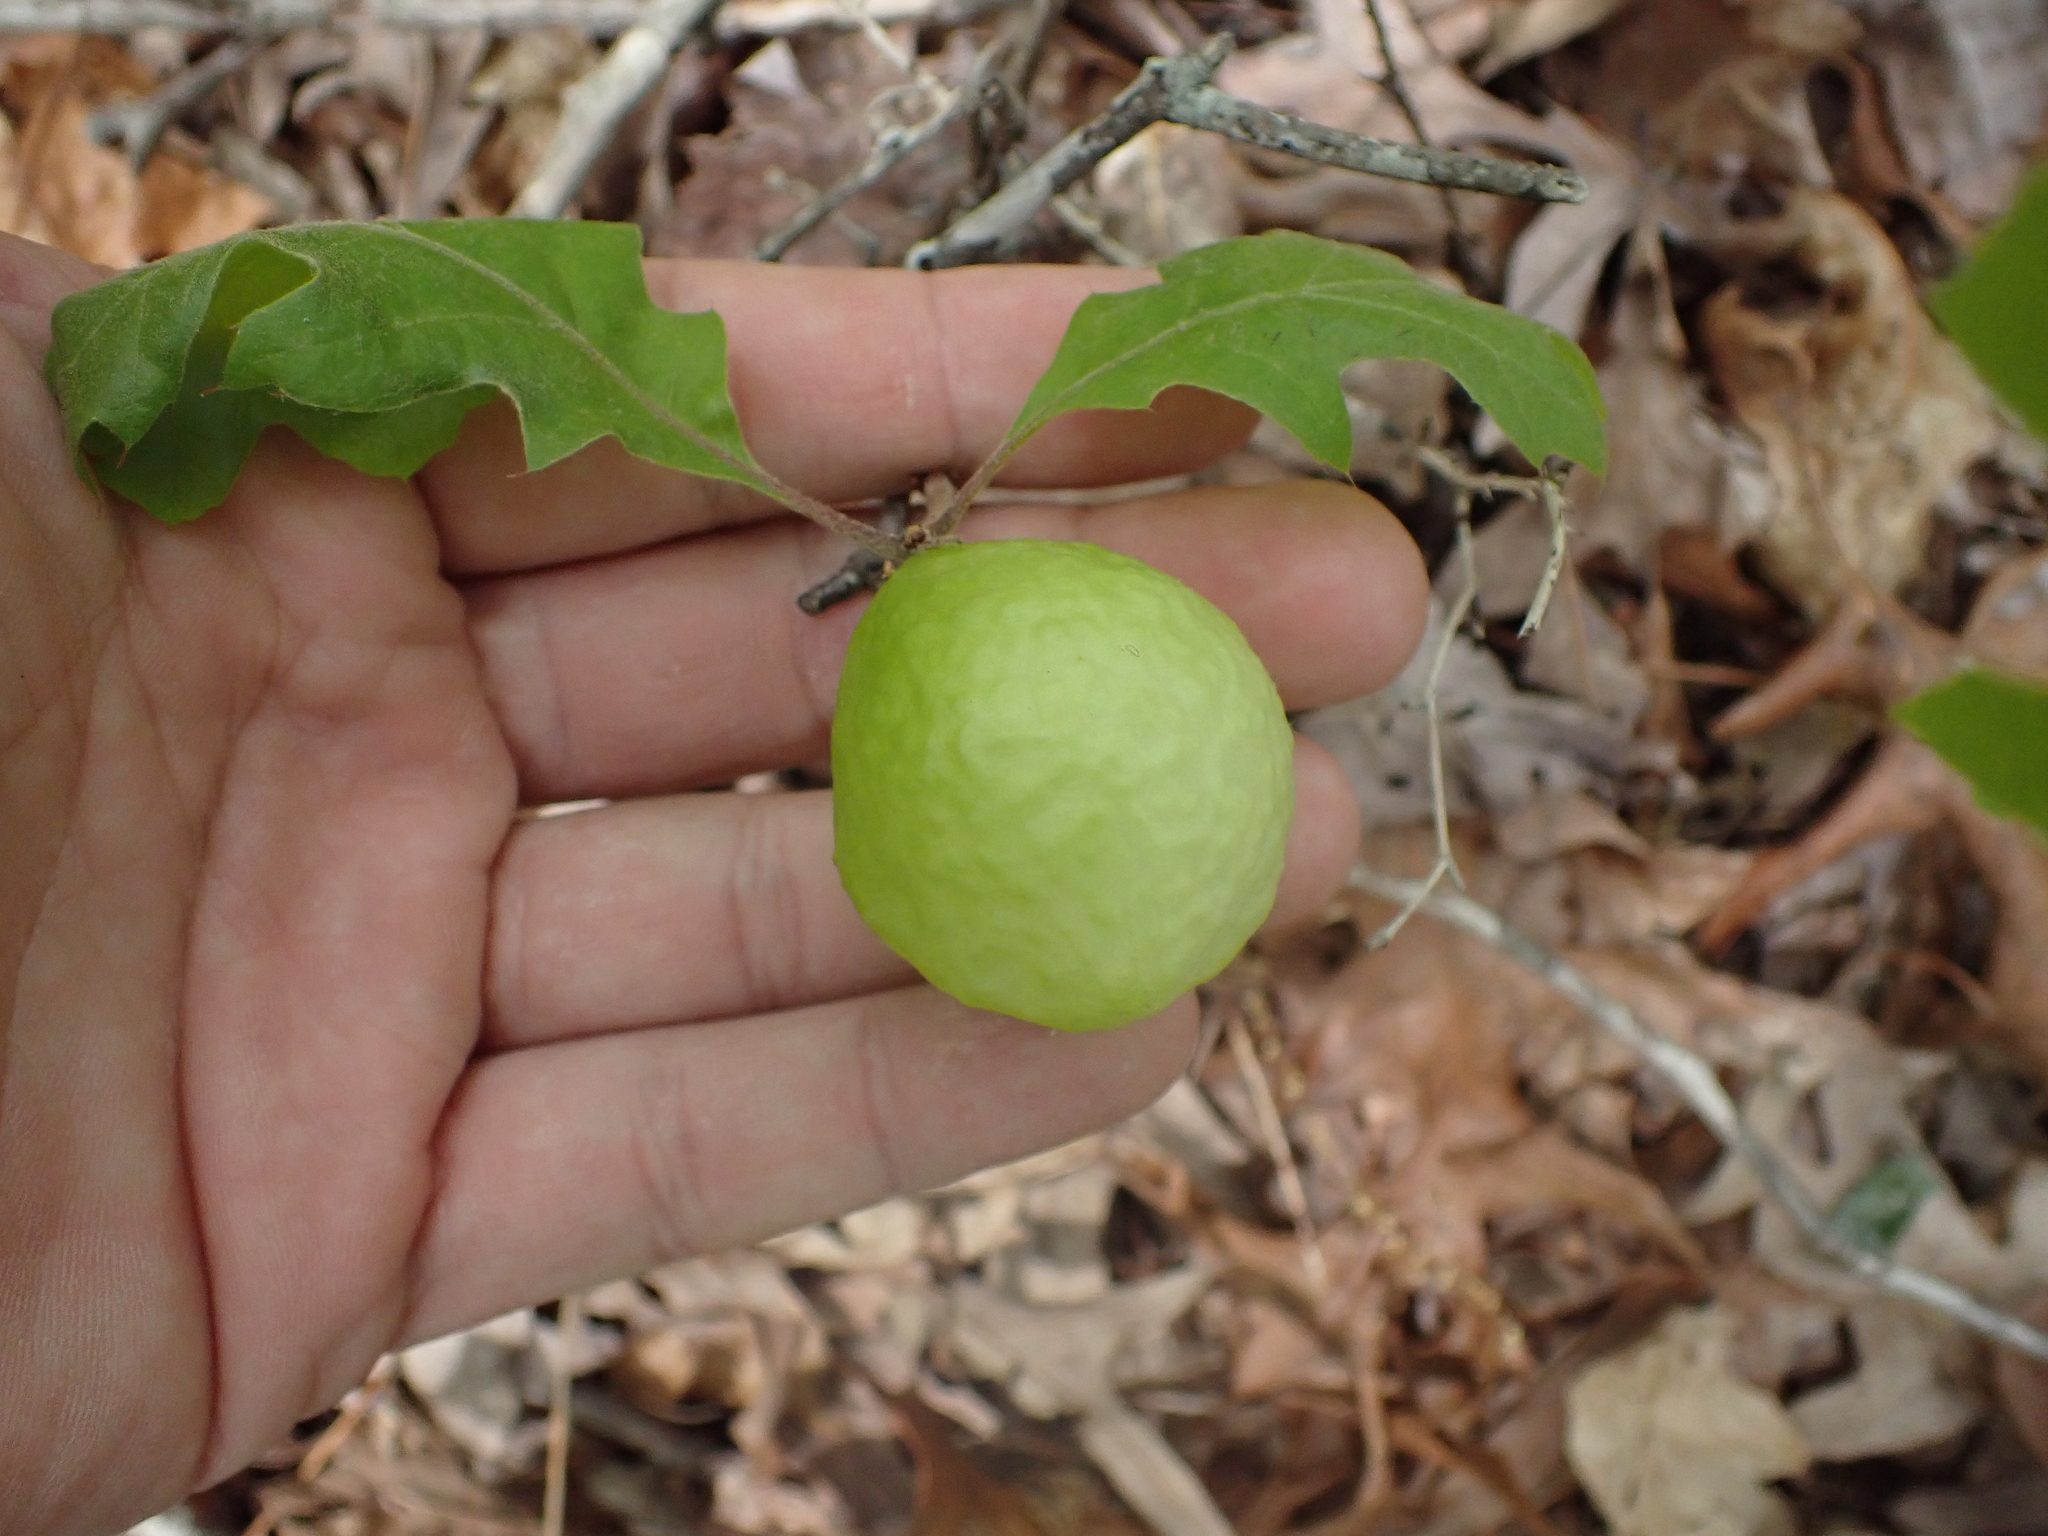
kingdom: Animalia
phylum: Arthropoda
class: Insecta
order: Hymenoptera
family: Cynipidae
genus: Amphibolips
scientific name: Amphibolips
